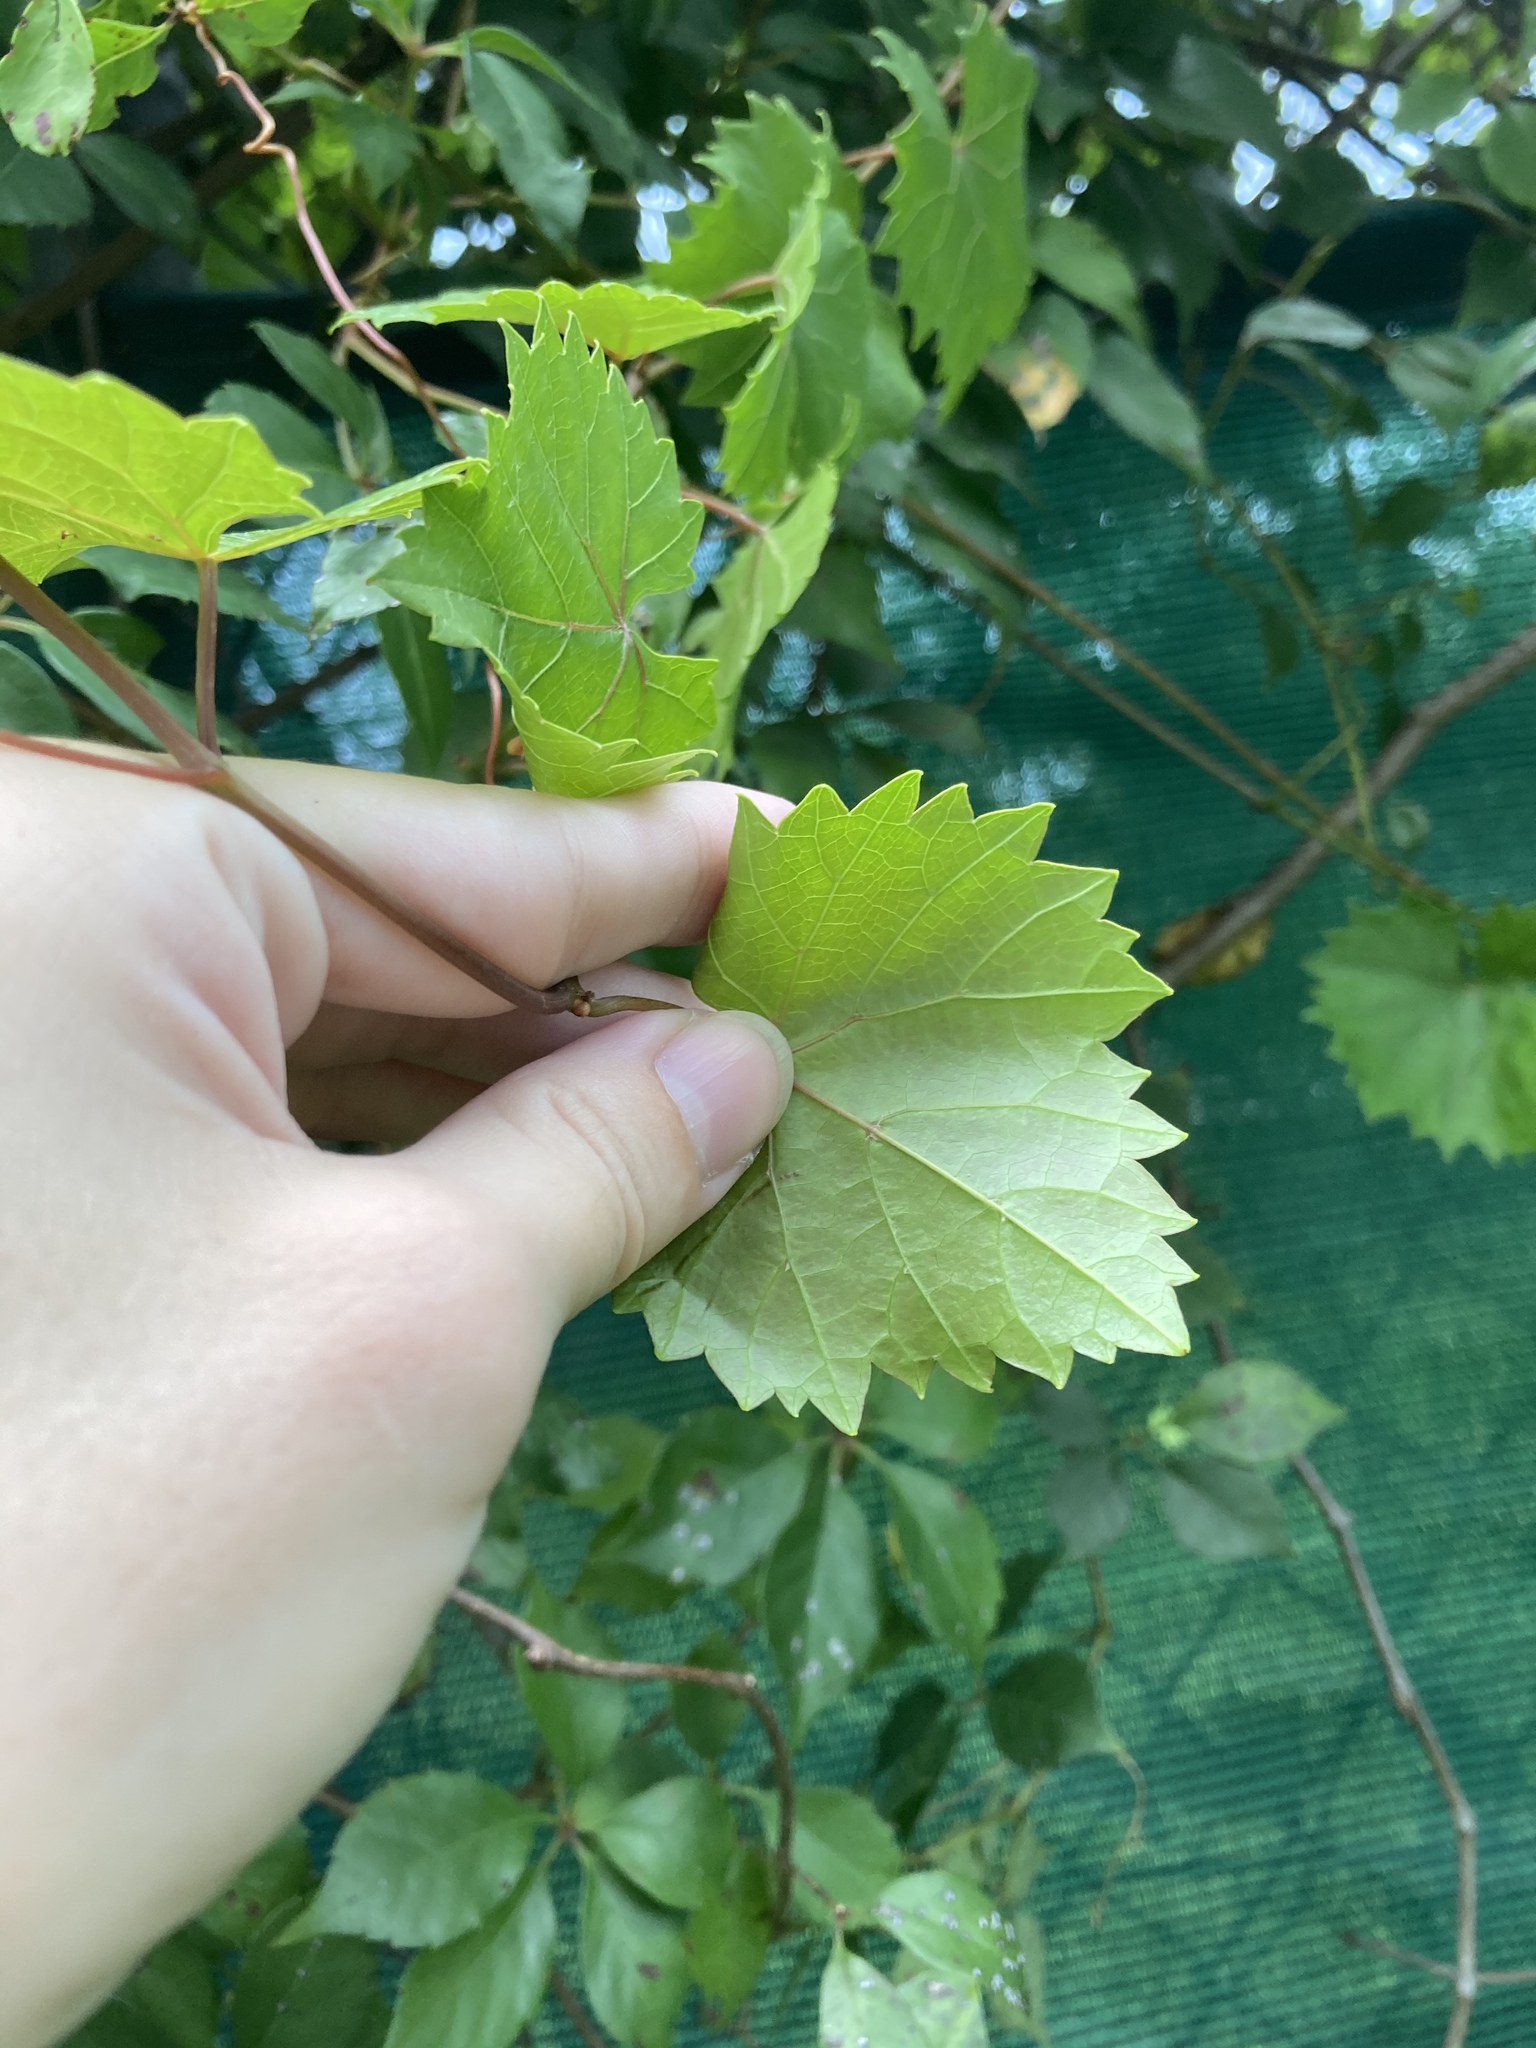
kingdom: Plantae
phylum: Tracheophyta
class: Magnoliopsida
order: Vitales
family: Vitaceae
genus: Vitis
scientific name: Vitis rotundifolia
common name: Muscadine grape
